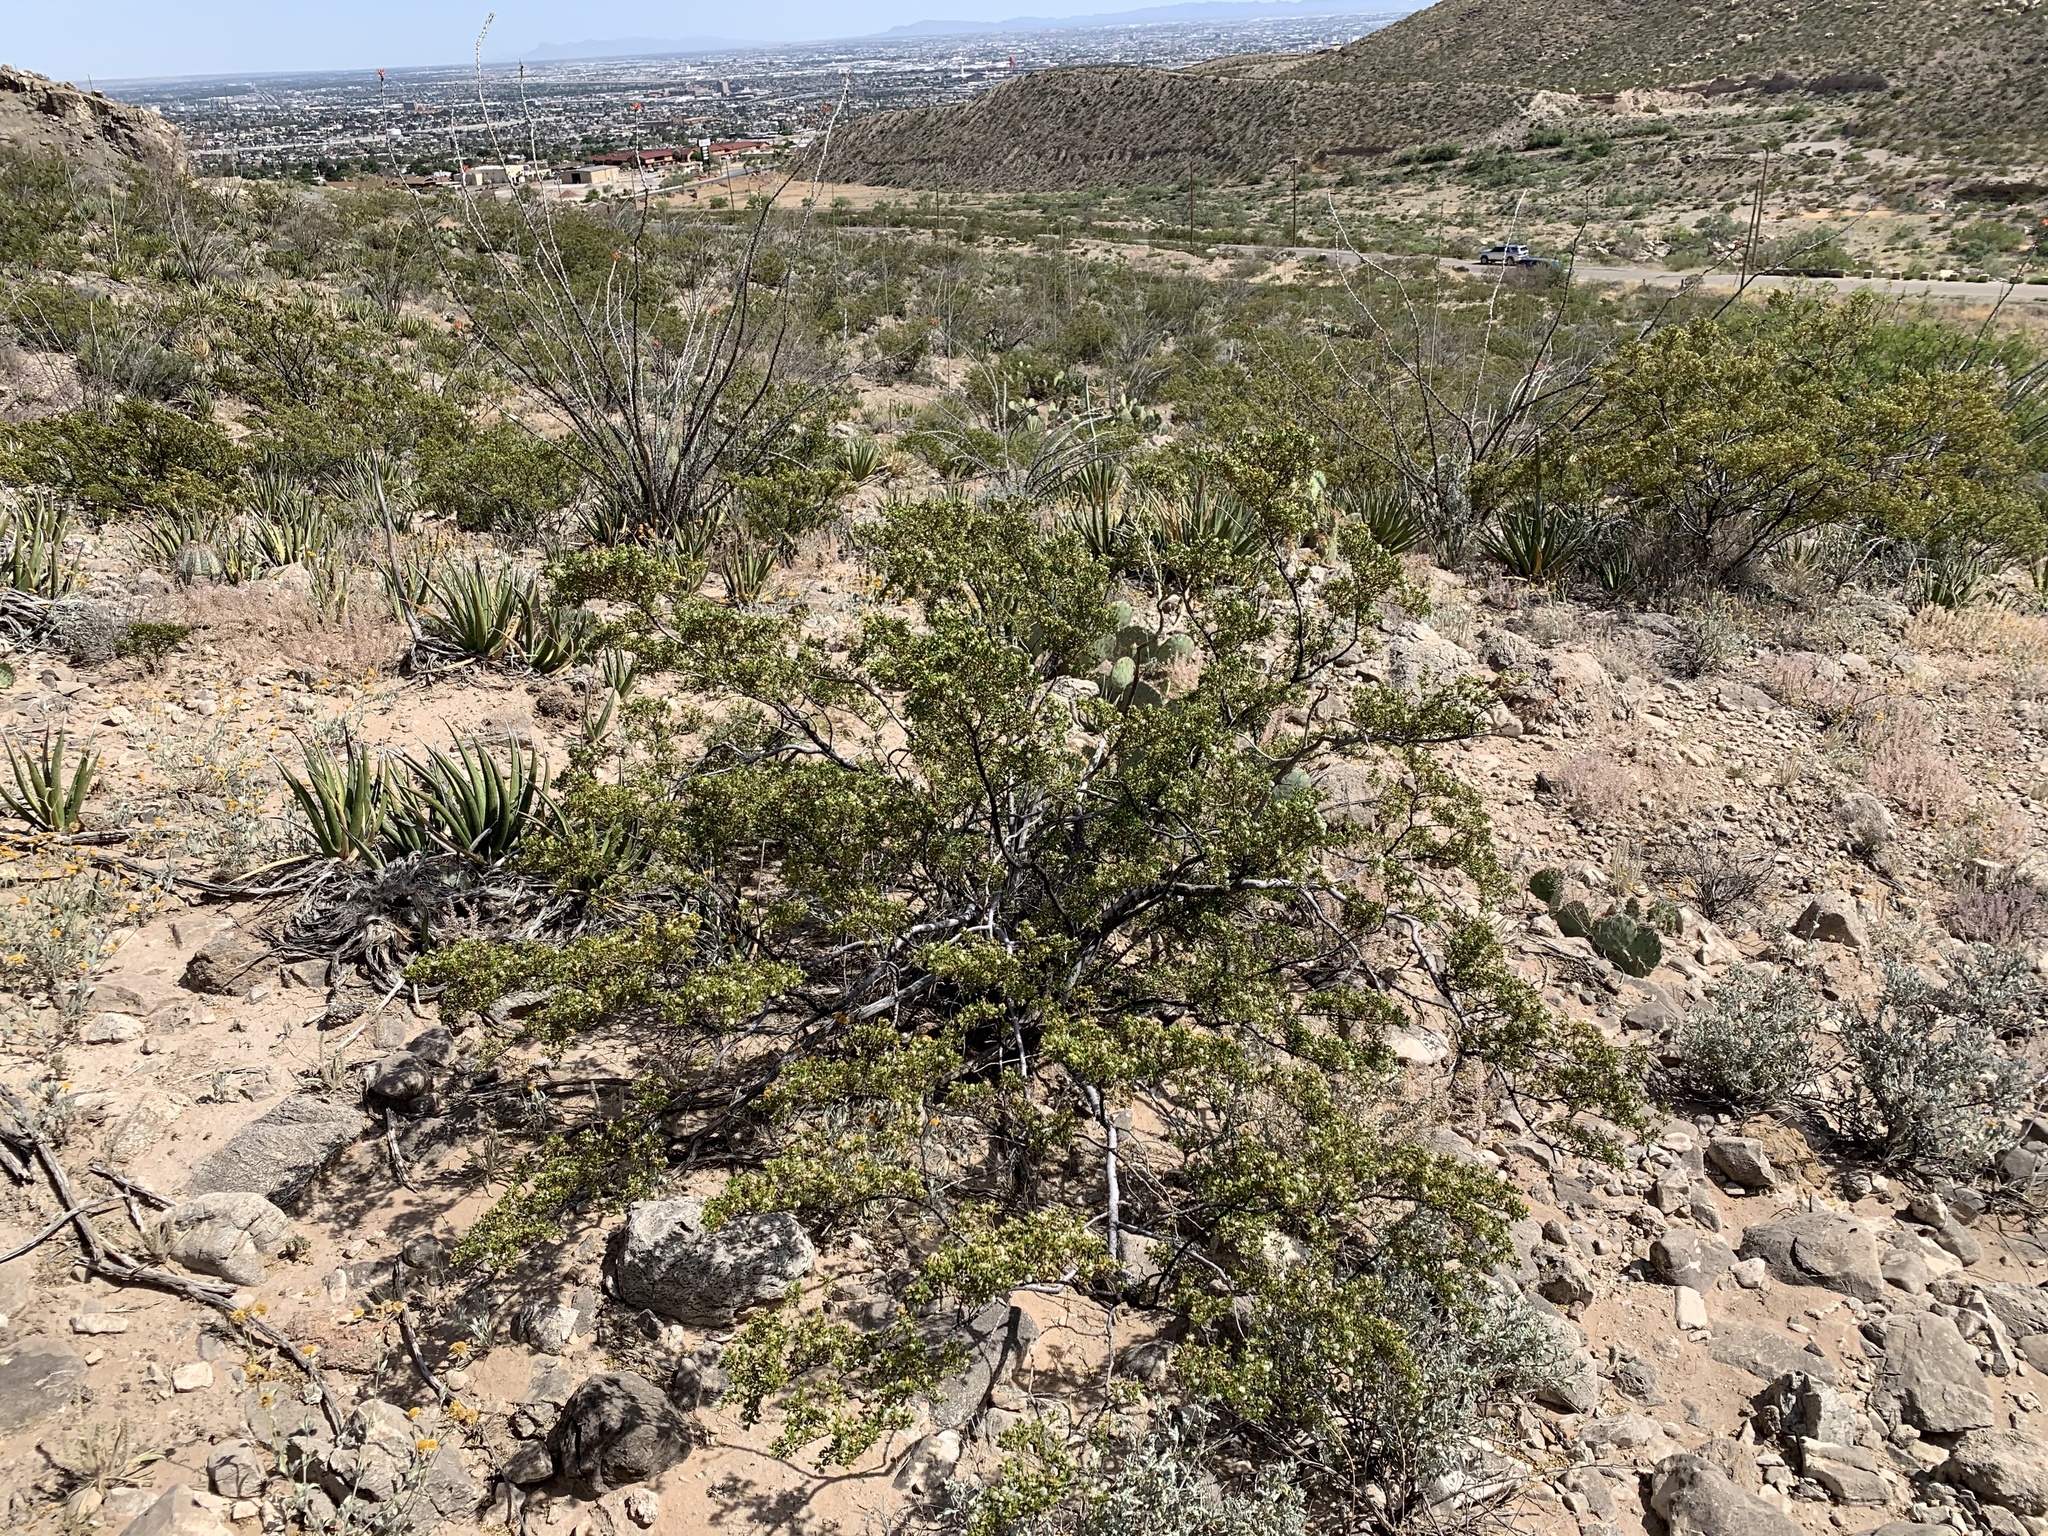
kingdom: Plantae
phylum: Tracheophyta
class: Magnoliopsida
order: Zygophyllales
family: Zygophyllaceae
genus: Larrea
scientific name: Larrea tridentata
